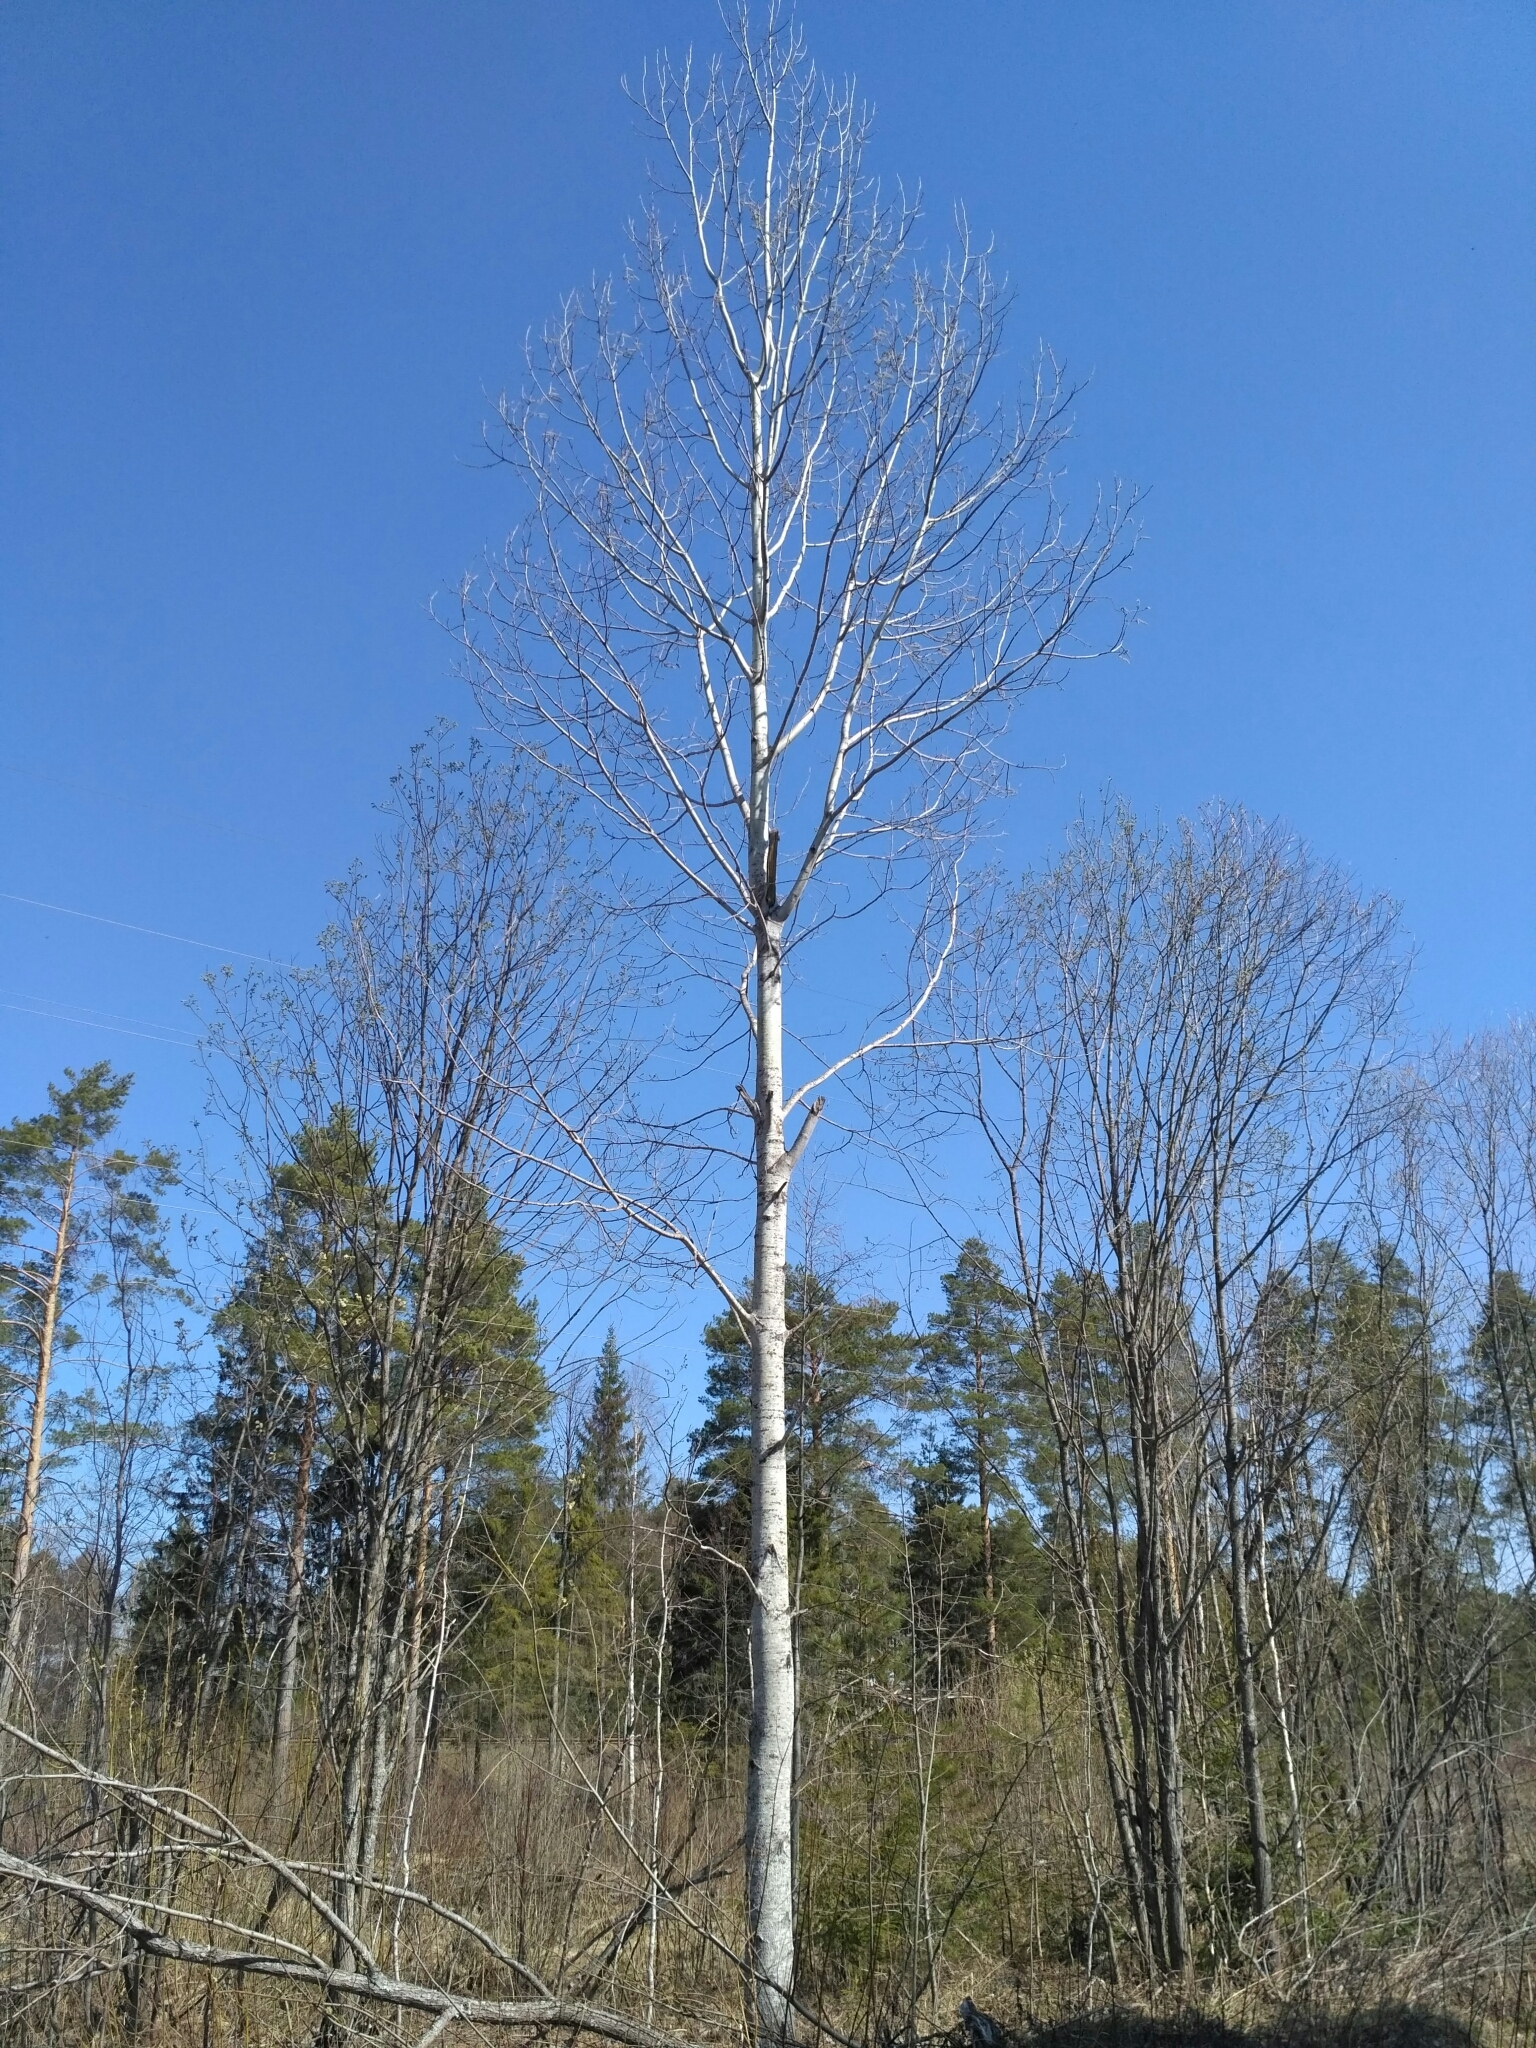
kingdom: Plantae
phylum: Tracheophyta
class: Magnoliopsida
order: Malpighiales
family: Salicaceae
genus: Populus
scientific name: Populus tremula
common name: European aspen
